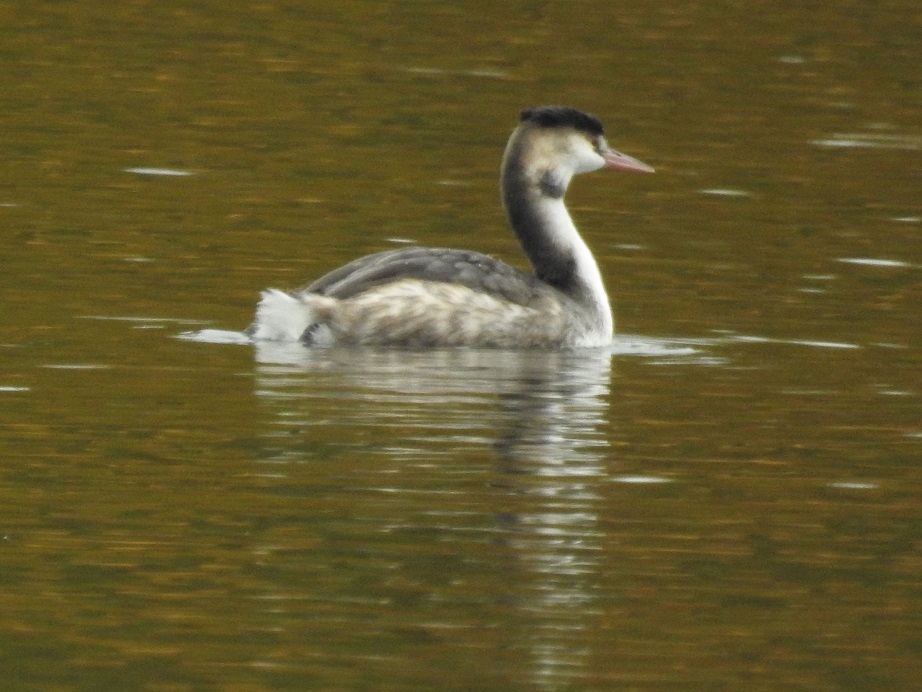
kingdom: Animalia
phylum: Chordata
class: Aves
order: Podicipediformes
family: Podicipedidae
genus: Podiceps
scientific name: Podiceps cristatus
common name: Great crested grebe
